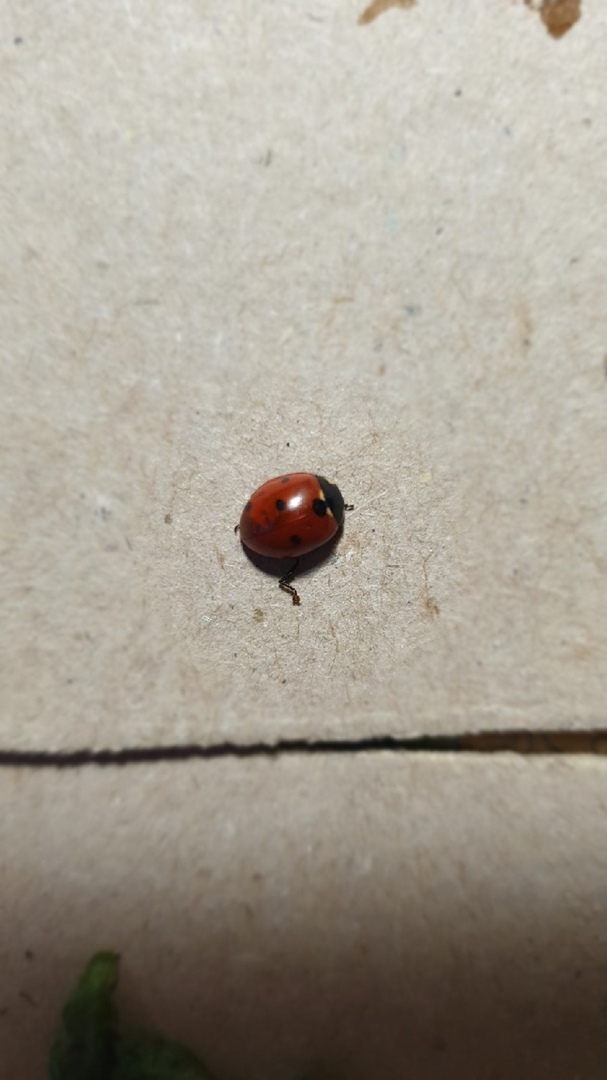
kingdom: Animalia
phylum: Arthropoda
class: Insecta
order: Coleoptera
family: Coccinellidae
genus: Coccinella
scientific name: Coccinella septempunctata
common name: Sevenspotted lady beetle
